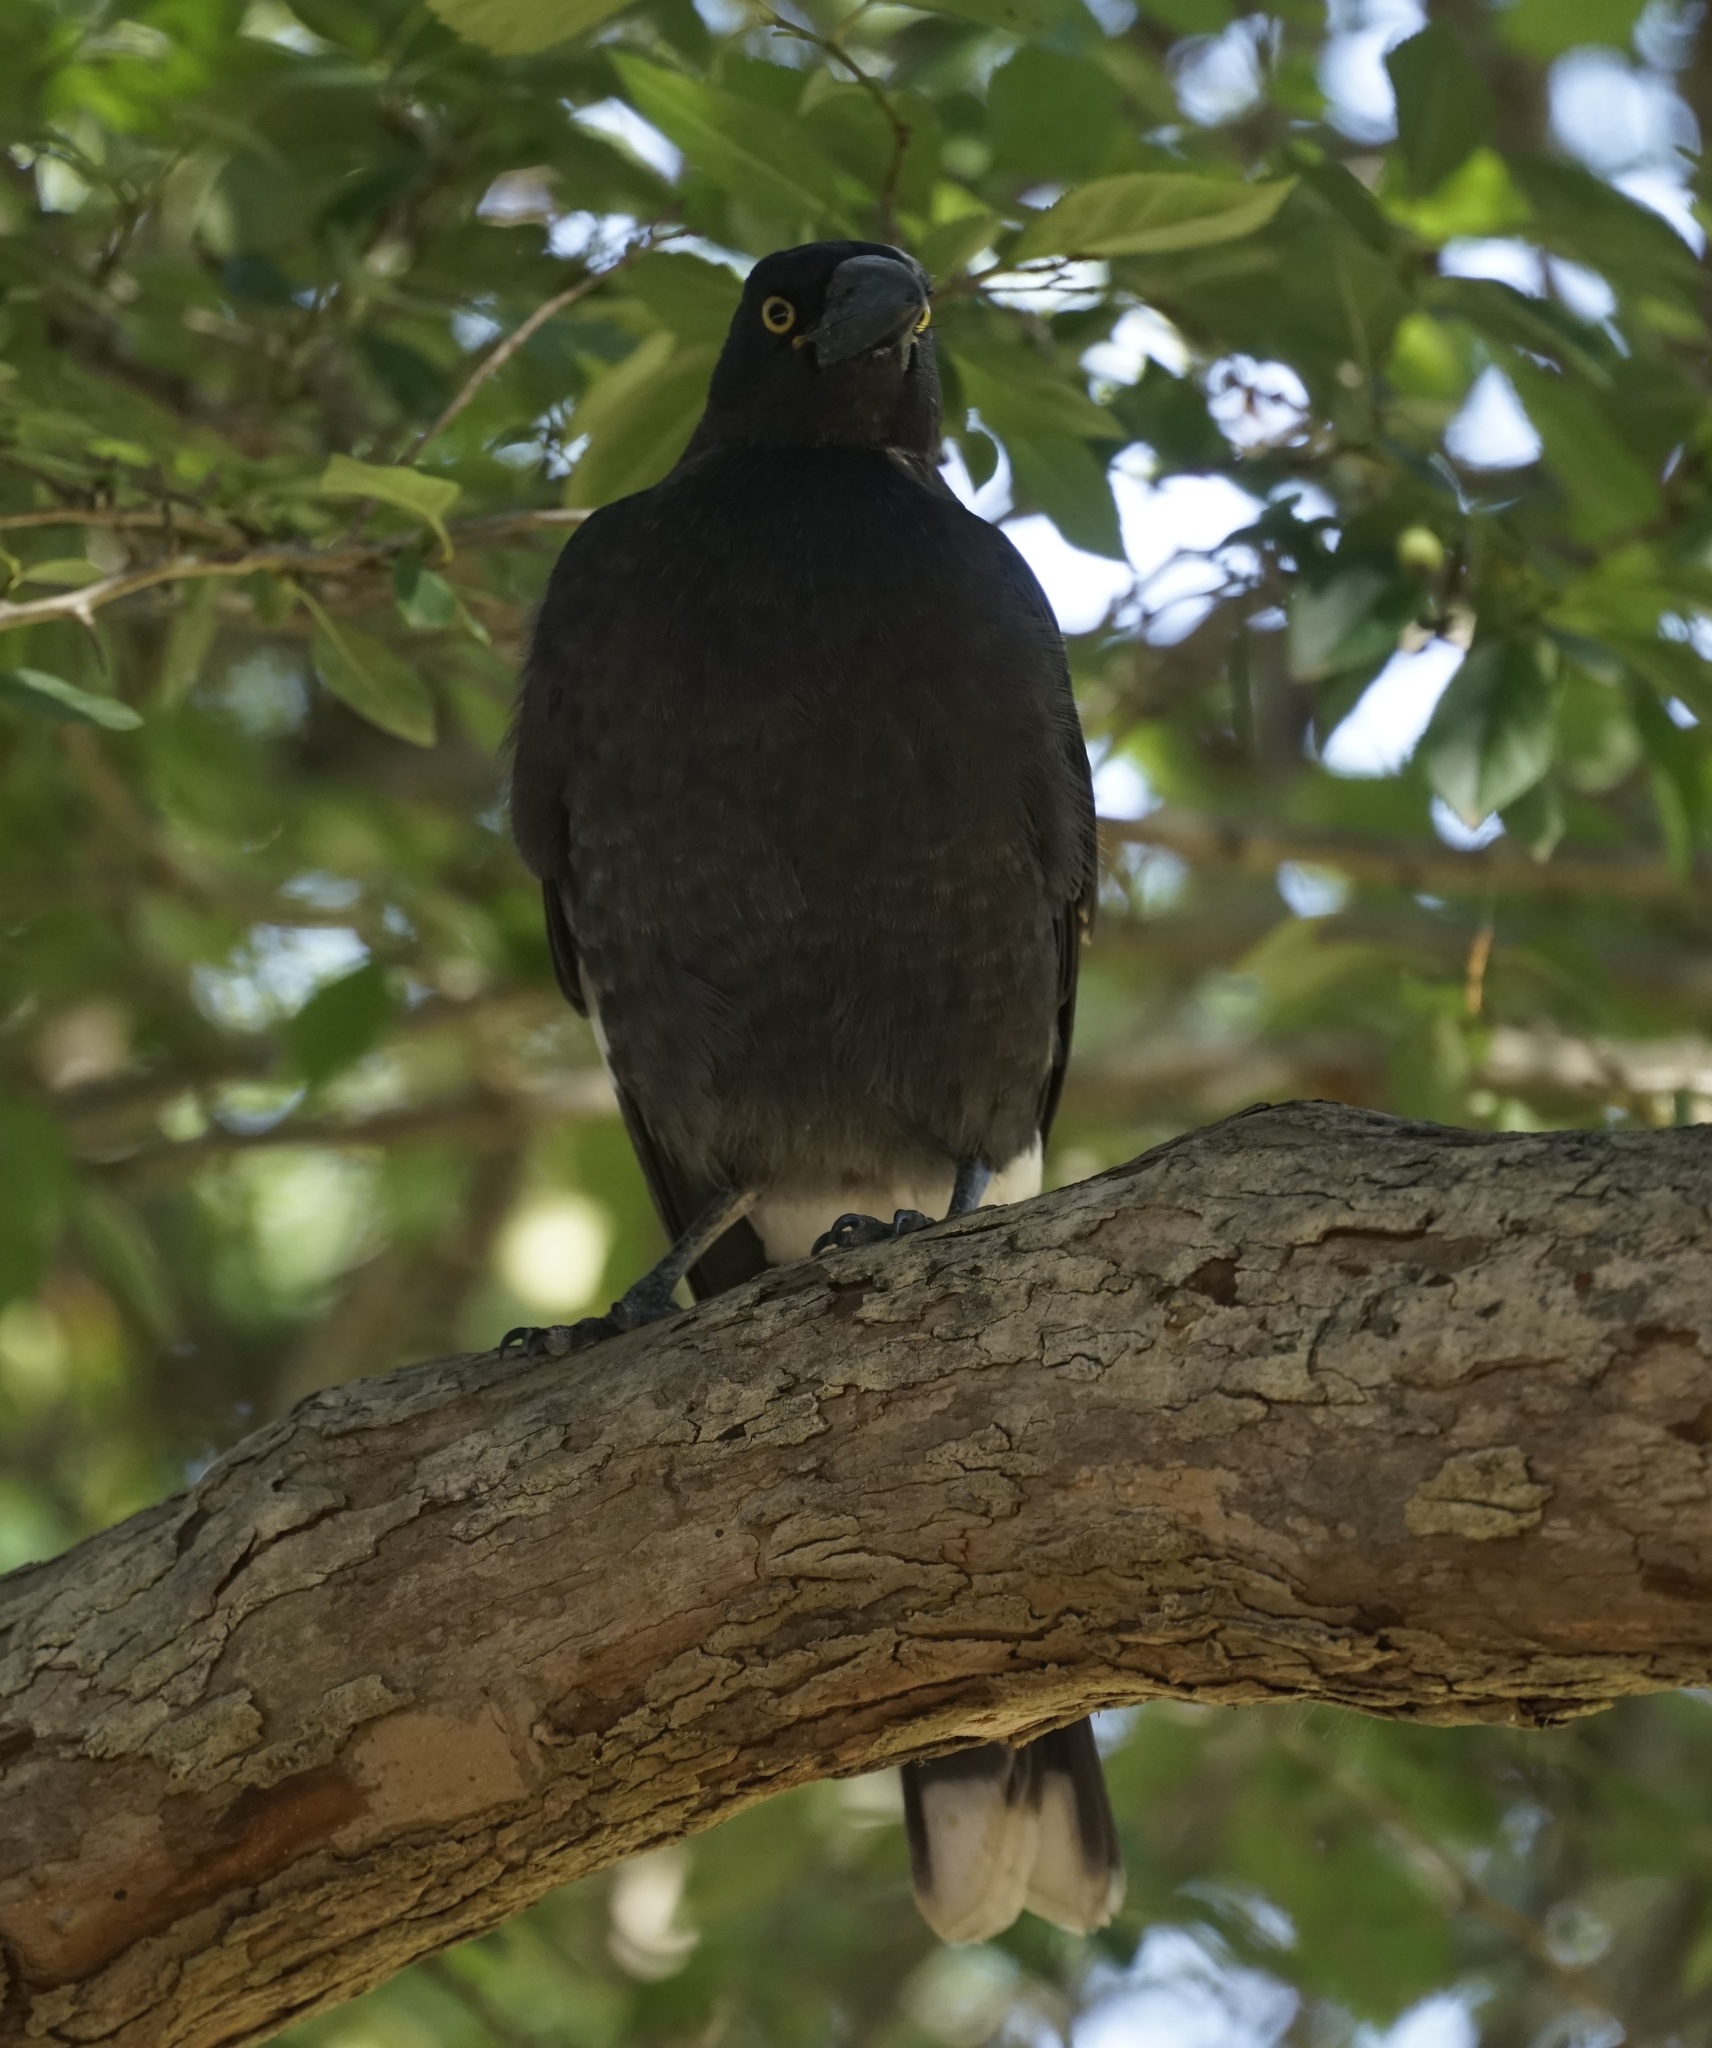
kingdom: Animalia
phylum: Chordata
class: Aves
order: Passeriformes
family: Cracticidae
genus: Strepera
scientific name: Strepera graculina
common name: Pied currawong
